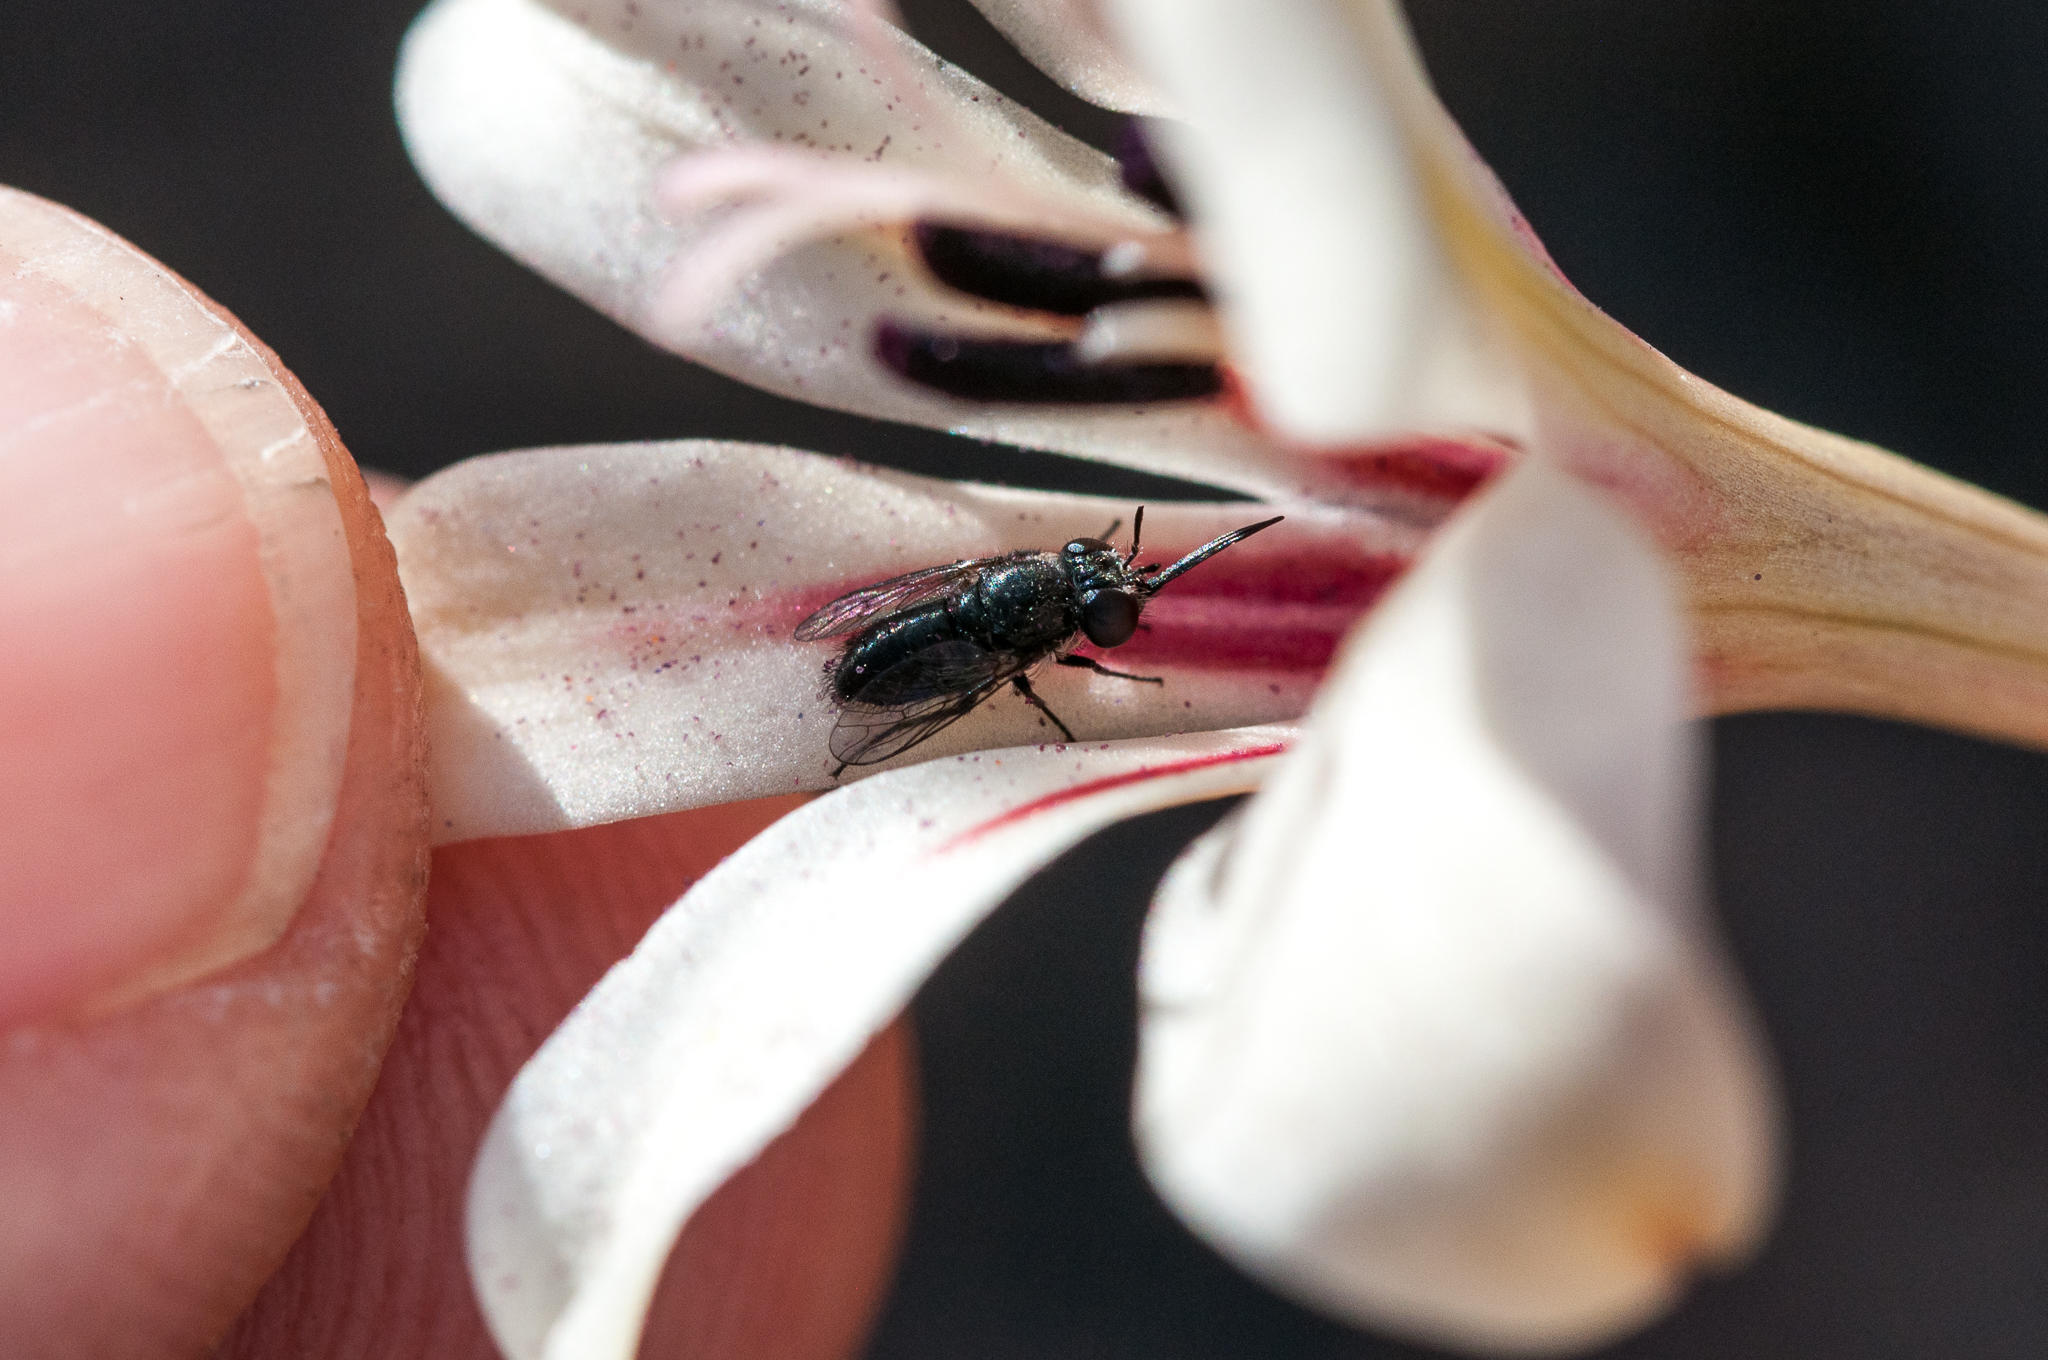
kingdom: Animalia
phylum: Arthropoda
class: Insecta
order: Diptera
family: Bombyliidae
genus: Megapalpus
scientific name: Megapalpus capensis
